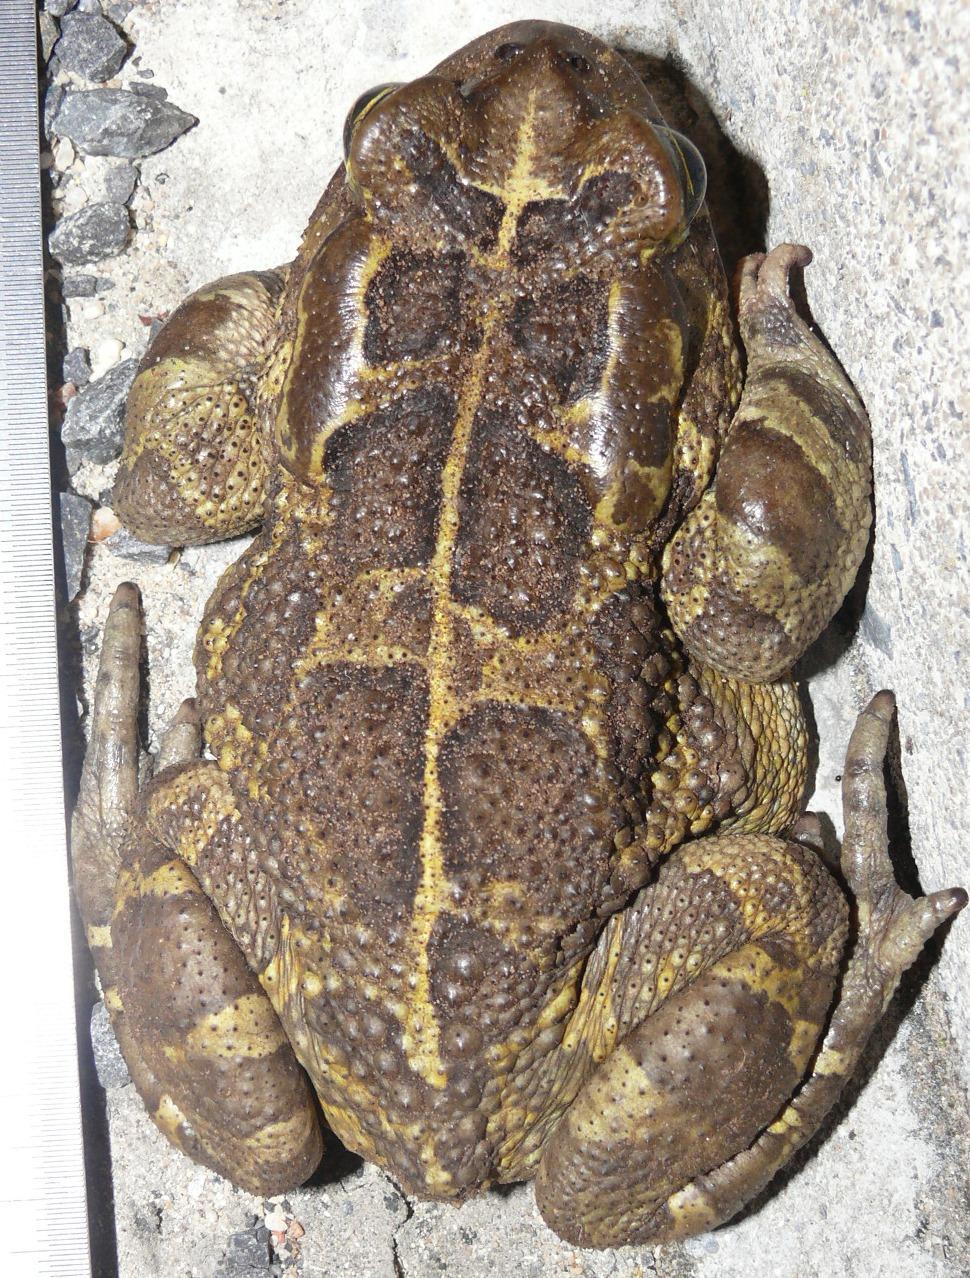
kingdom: Animalia
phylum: Chordata
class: Amphibia
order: Anura
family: Bufonidae
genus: Sclerophrys
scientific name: Sclerophrys pantherina
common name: Panther toad
